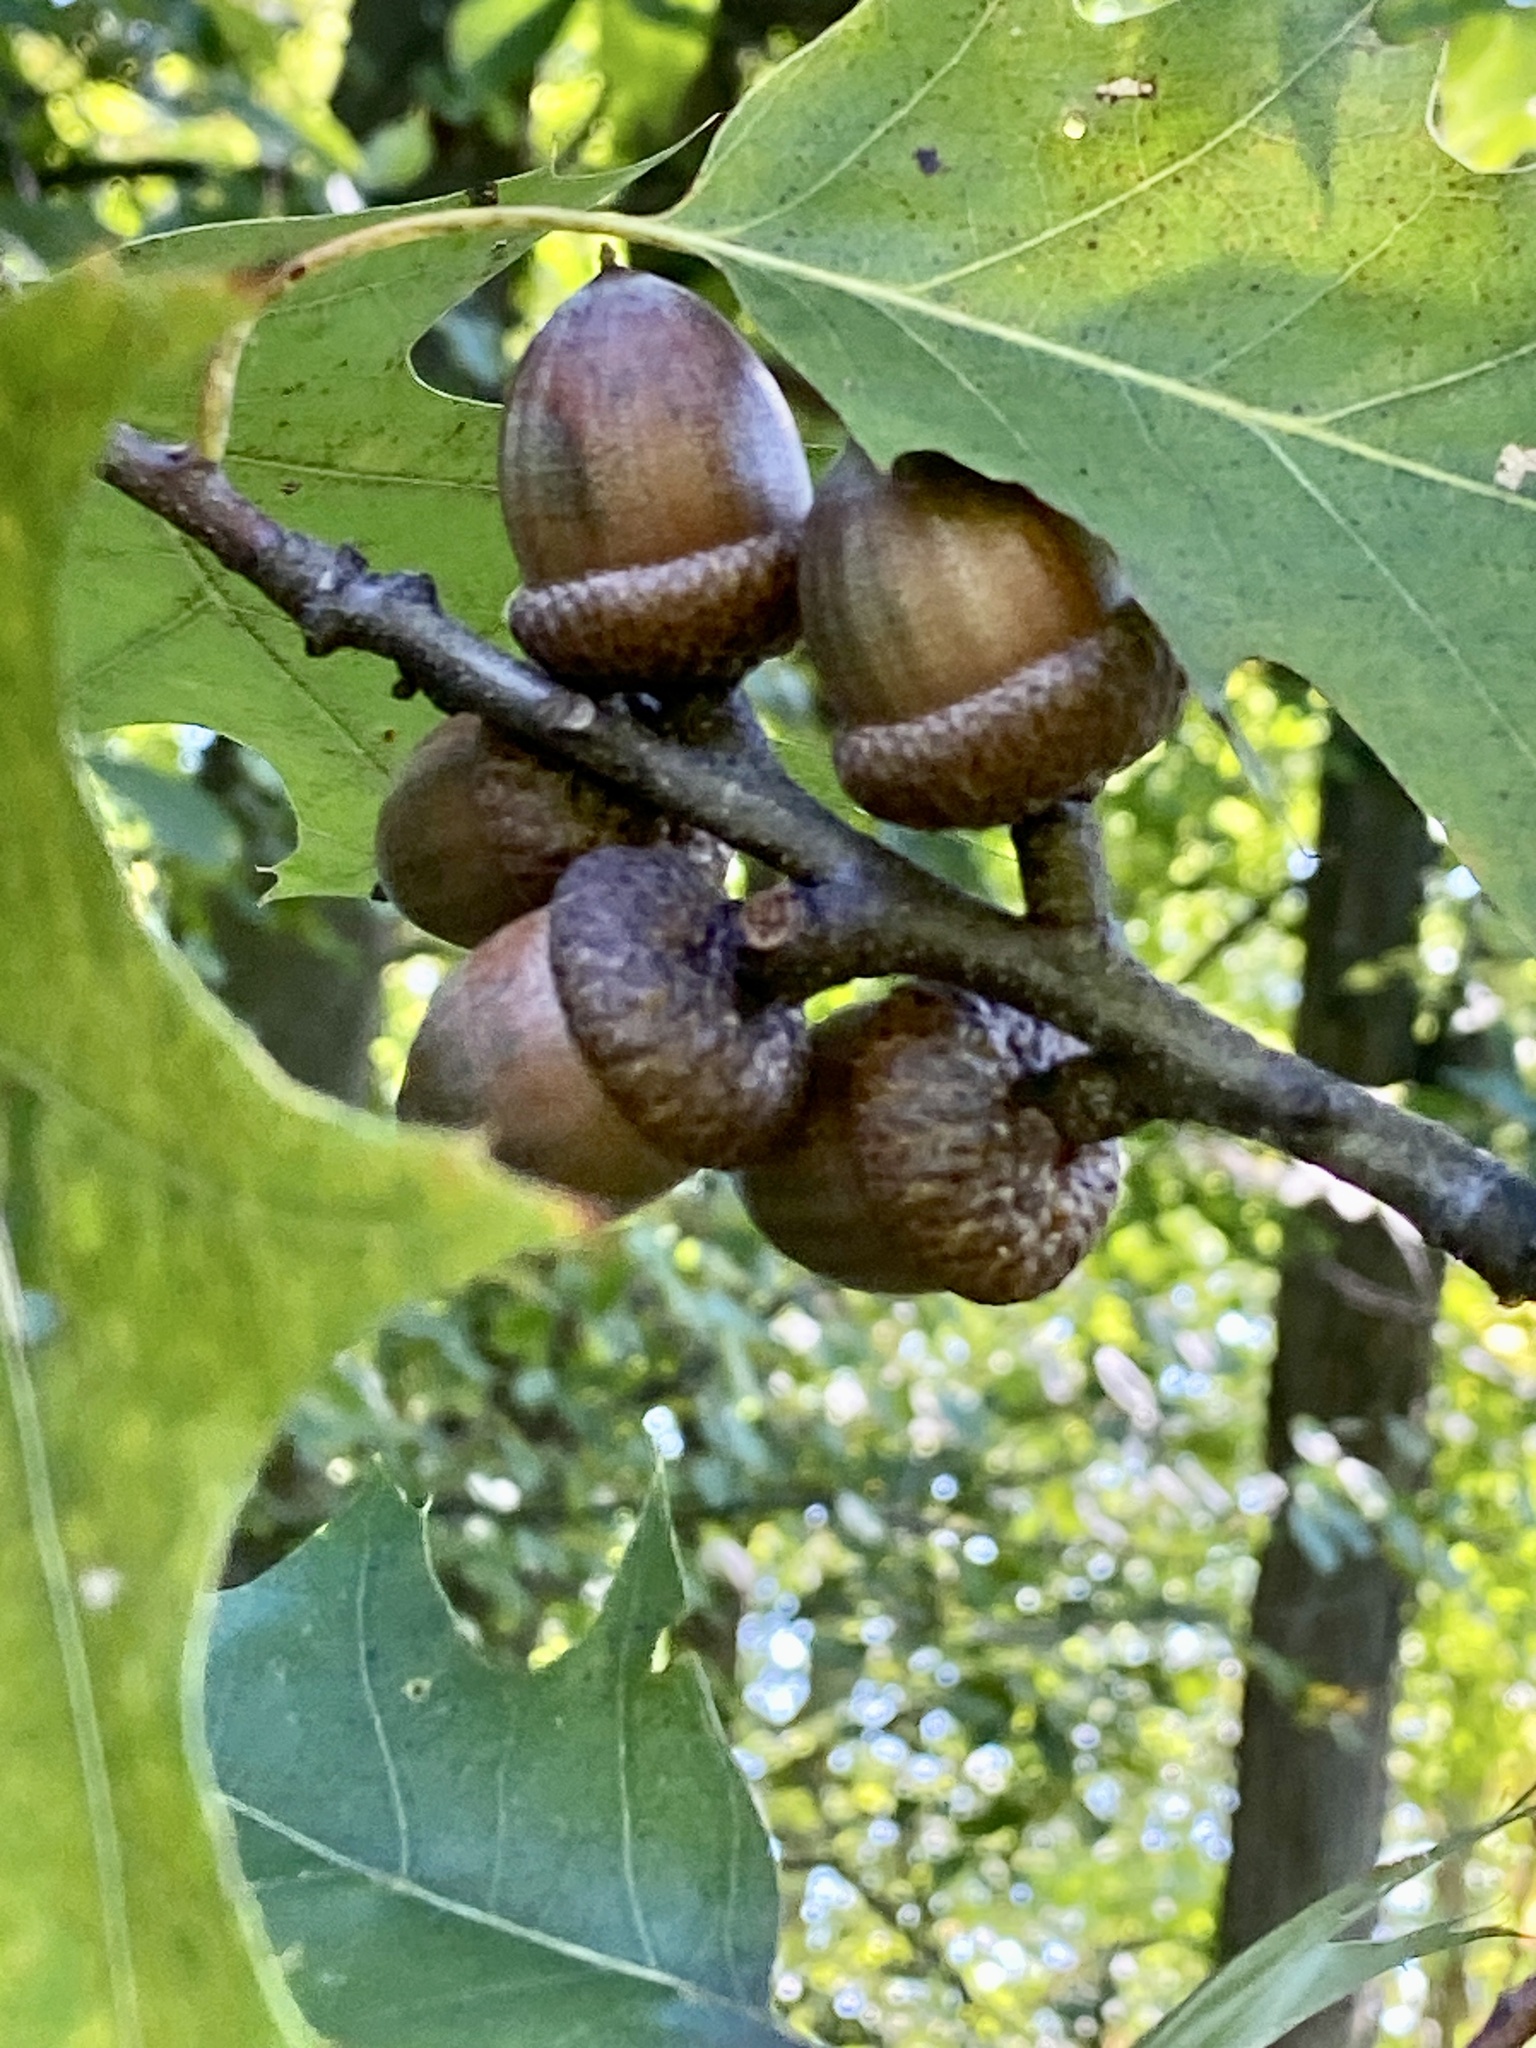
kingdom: Plantae
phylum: Tracheophyta
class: Magnoliopsida
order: Fagales
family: Fagaceae
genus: Quercus
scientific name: Quercus rubra
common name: Red oak
